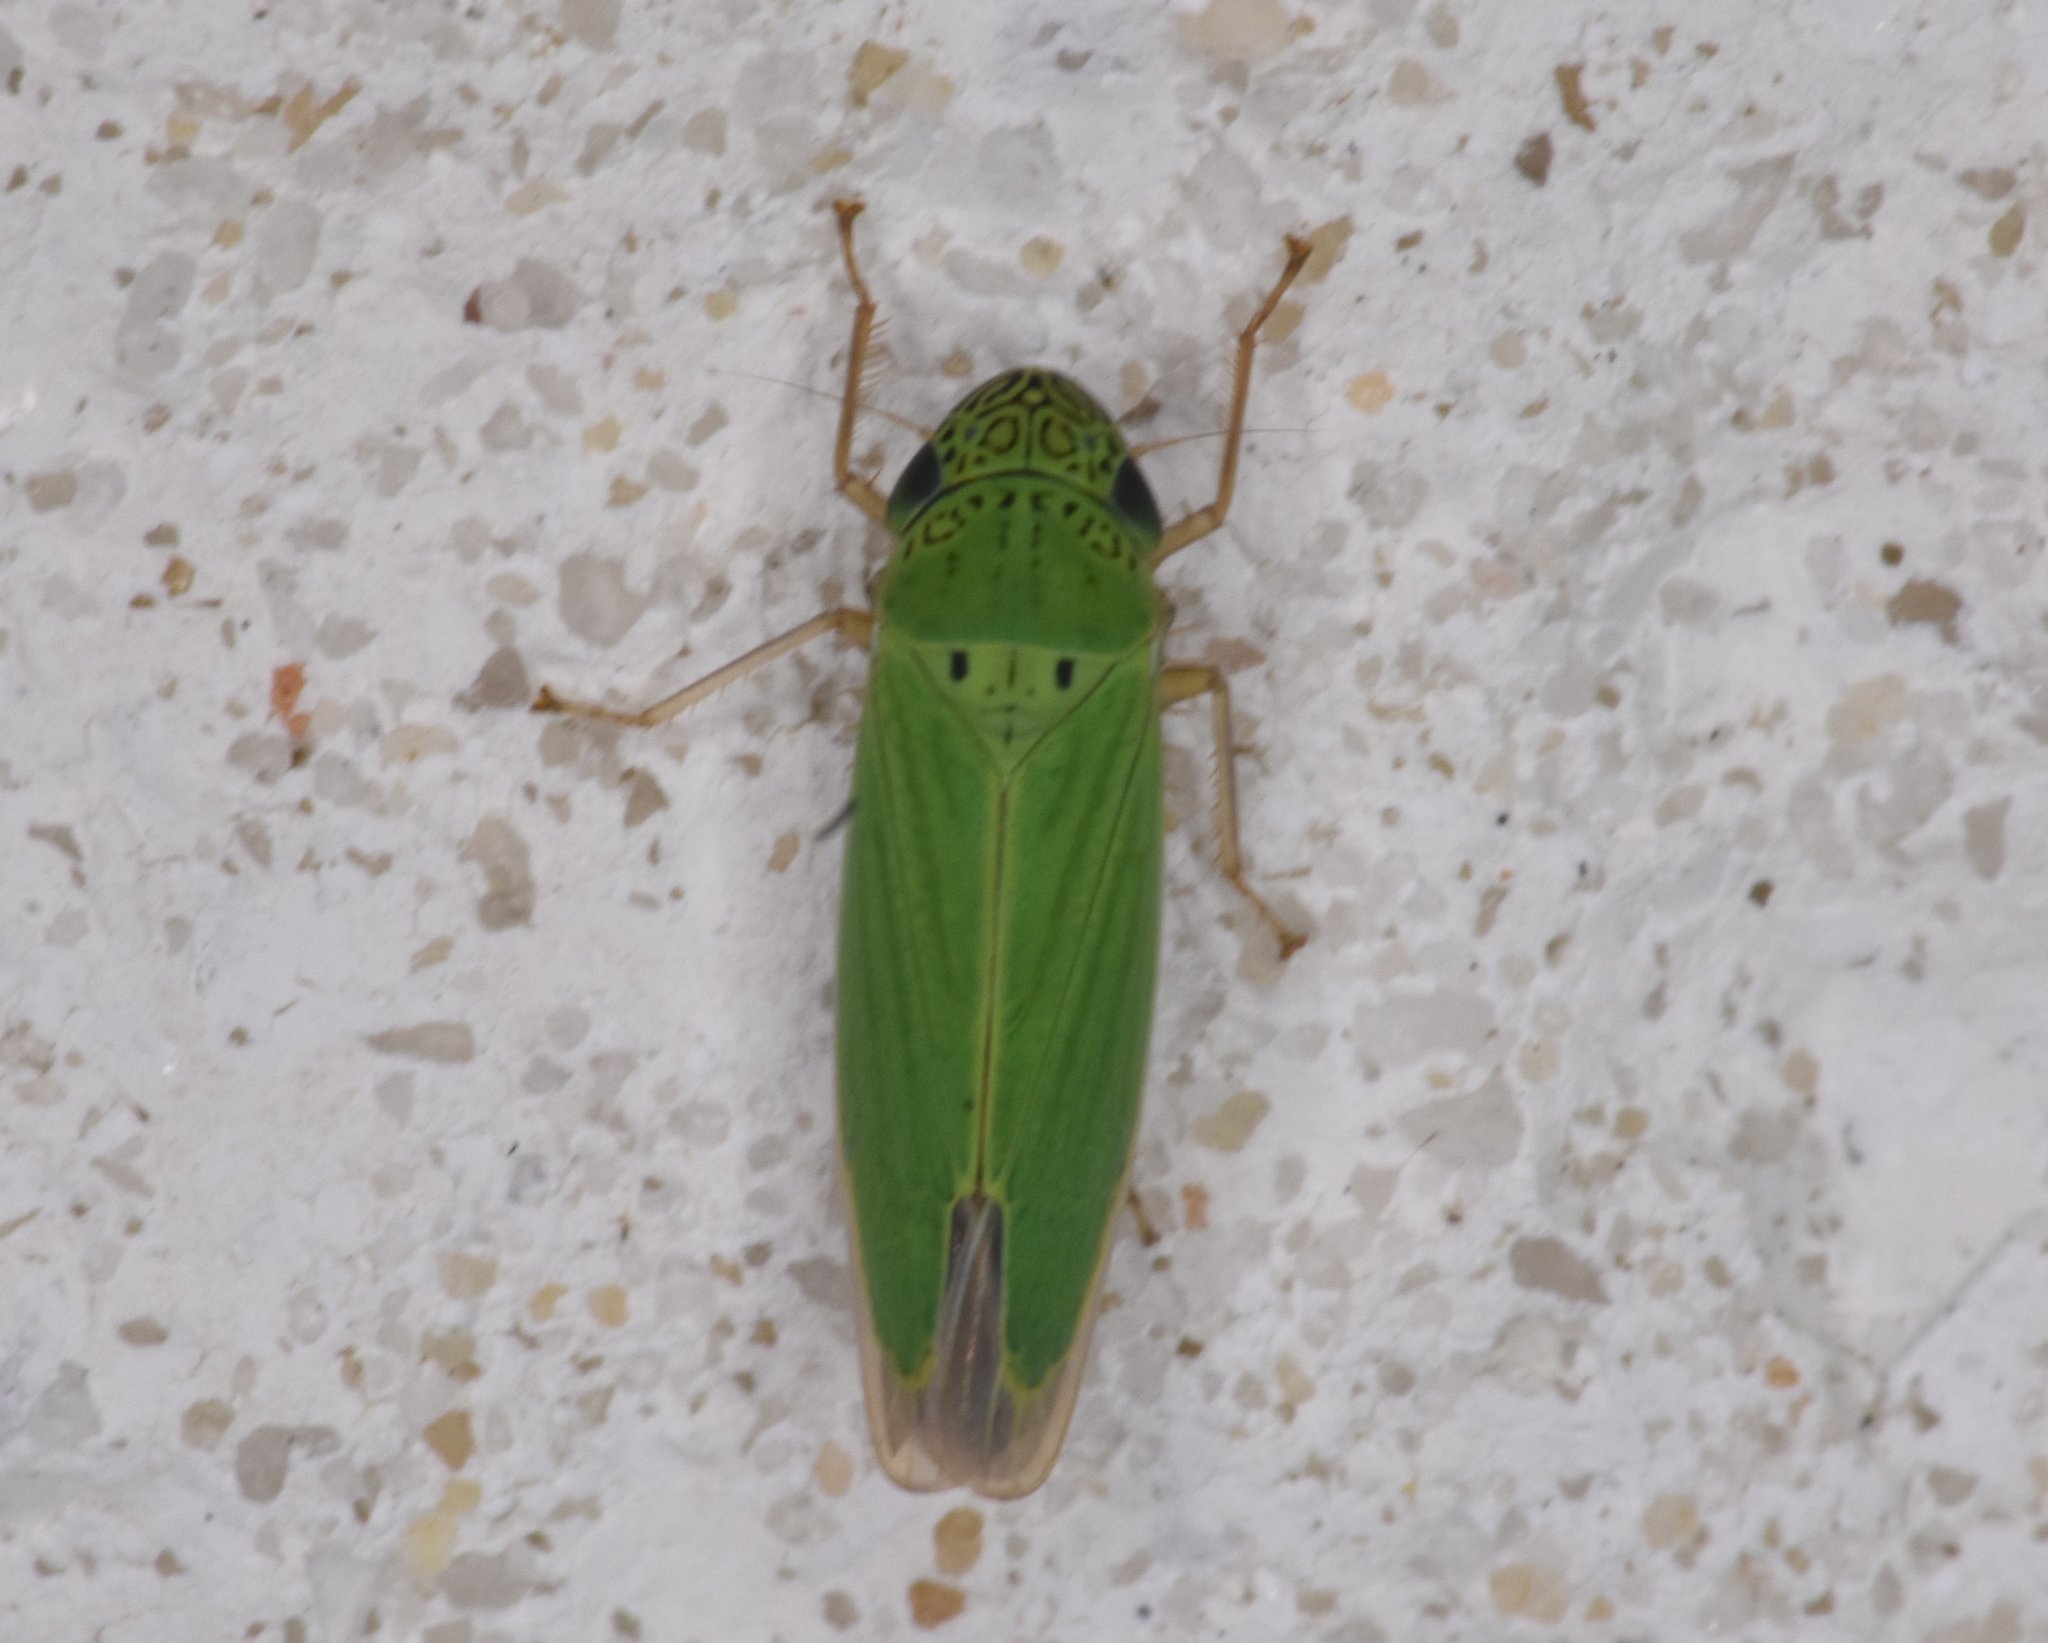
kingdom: Animalia
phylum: Arthropoda
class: Insecta
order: Hemiptera
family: Cicadellidae
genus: Hortensia
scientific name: Hortensia similis
